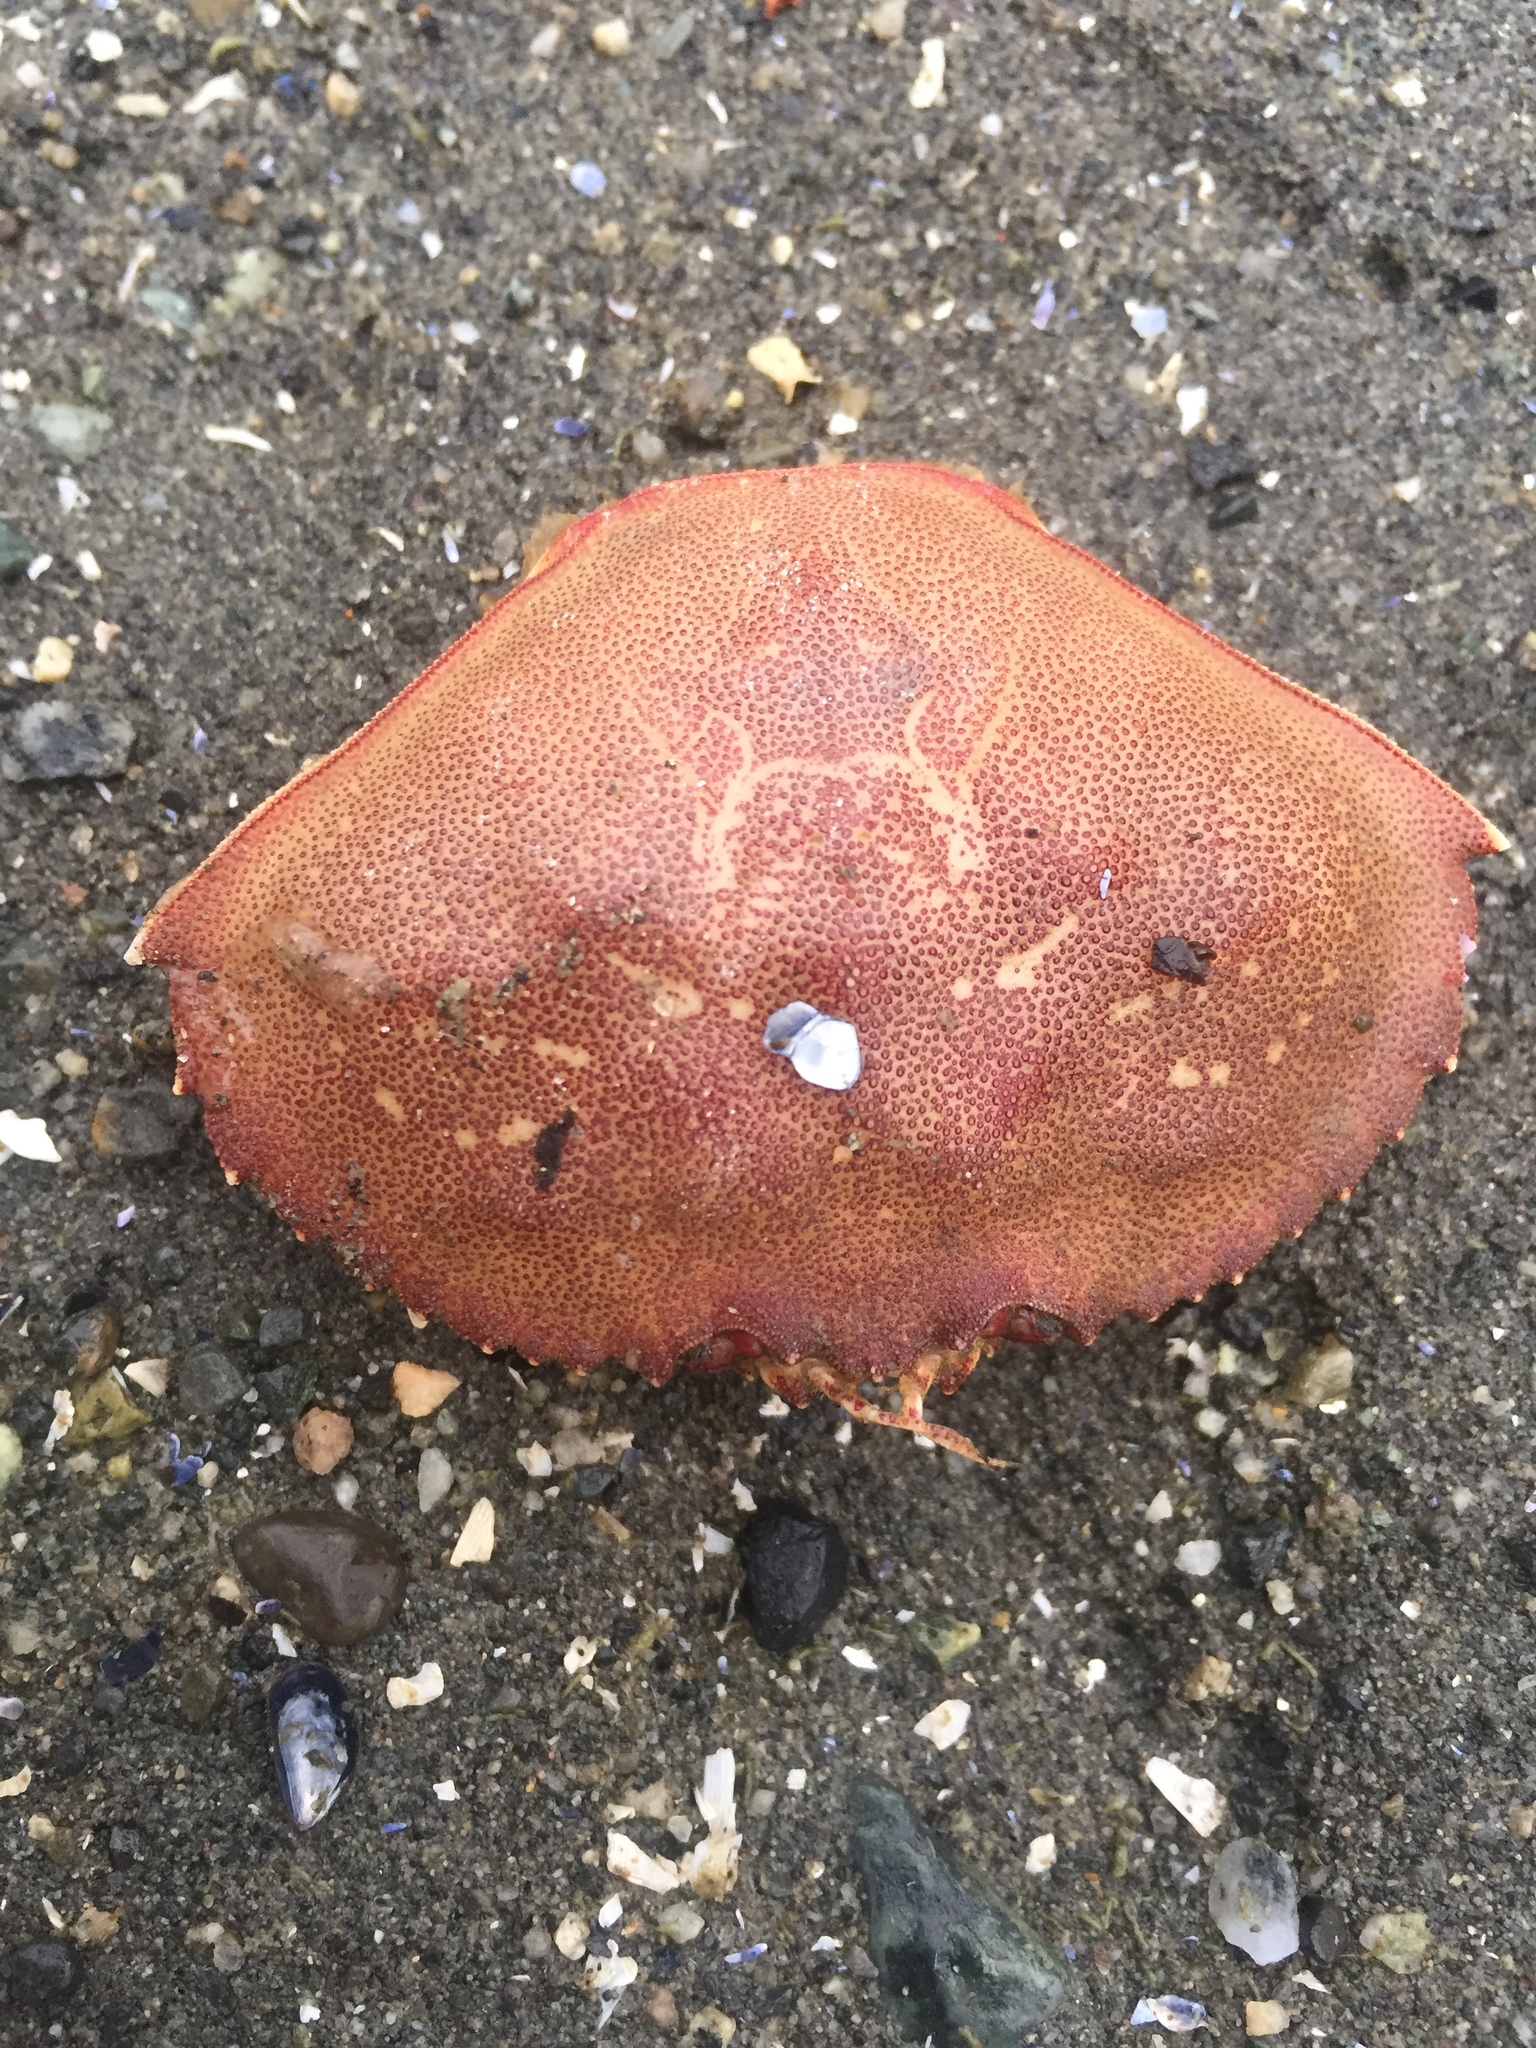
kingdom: Animalia
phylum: Arthropoda
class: Malacostraca
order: Decapoda
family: Cancridae
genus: Metacarcinus
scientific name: Metacarcinus magister
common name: Californian crab
